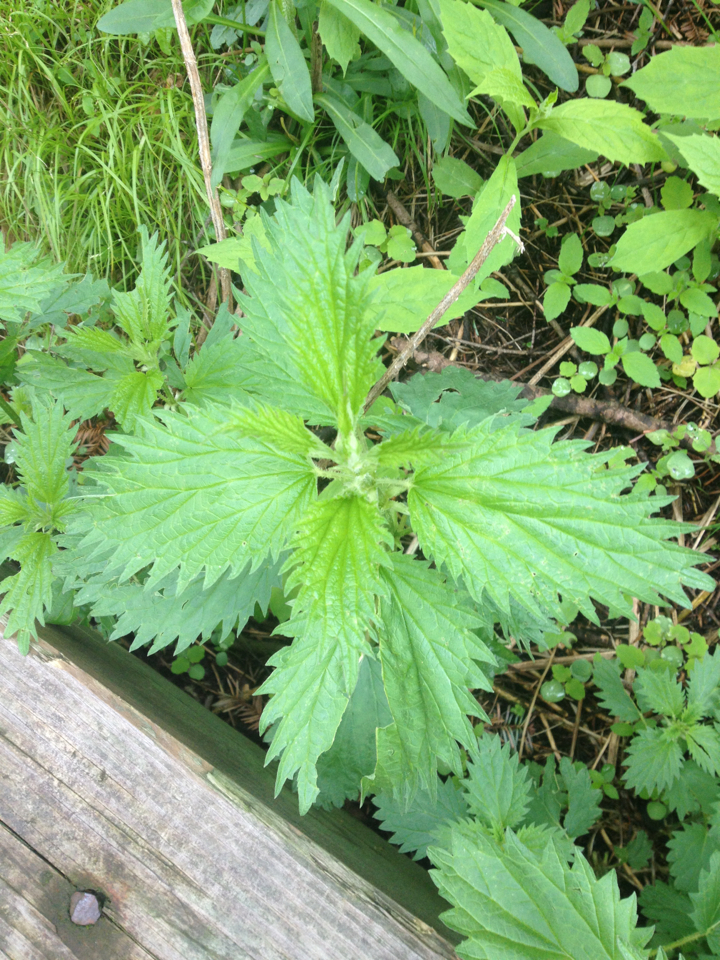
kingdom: Plantae
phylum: Tracheophyta
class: Magnoliopsida
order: Rosales
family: Urticaceae
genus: Urtica
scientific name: Urtica dioica
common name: Common nettle
